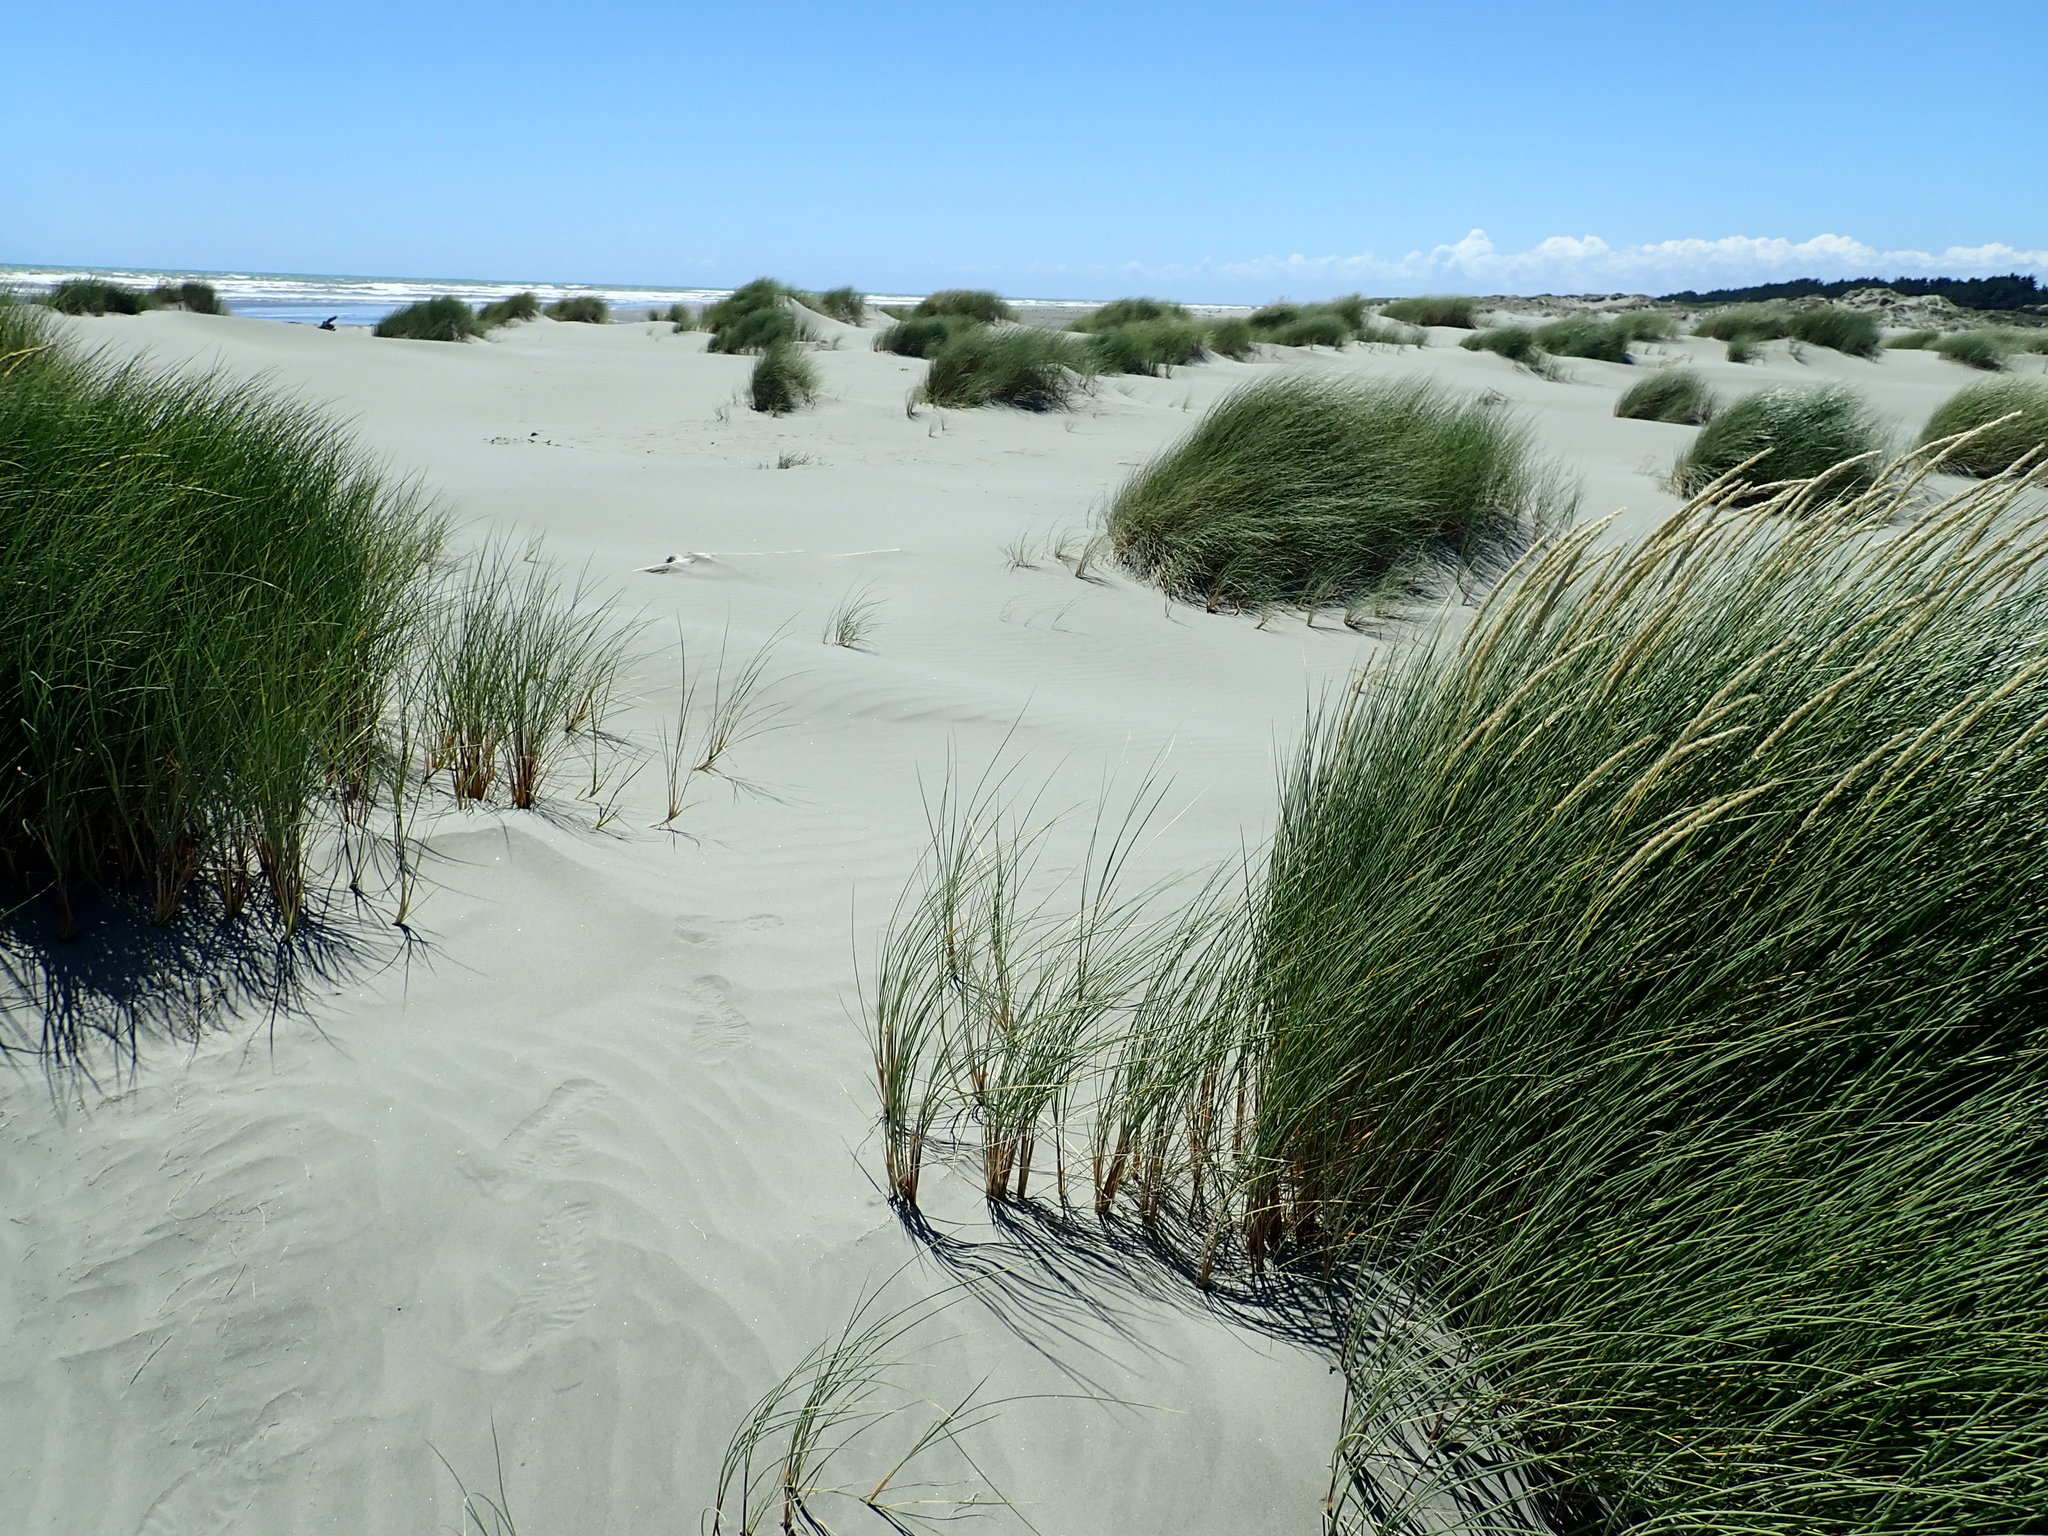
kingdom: Plantae
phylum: Tracheophyta
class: Liliopsida
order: Poales
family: Poaceae
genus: Calamagrostis
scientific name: Calamagrostis arenaria
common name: European beachgrass
